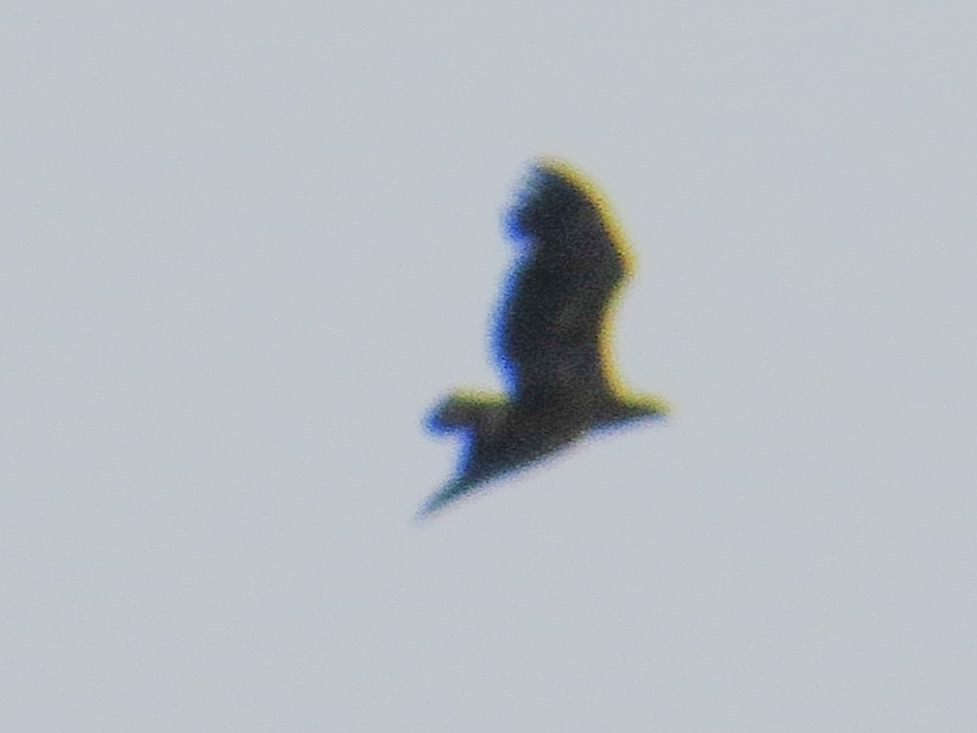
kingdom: Animalia
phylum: Chordata
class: Aves
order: Accipitriformes
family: Accipitridae
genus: Haliaeetus
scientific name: Haliaeetus albicilla
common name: White-tailed eagle
